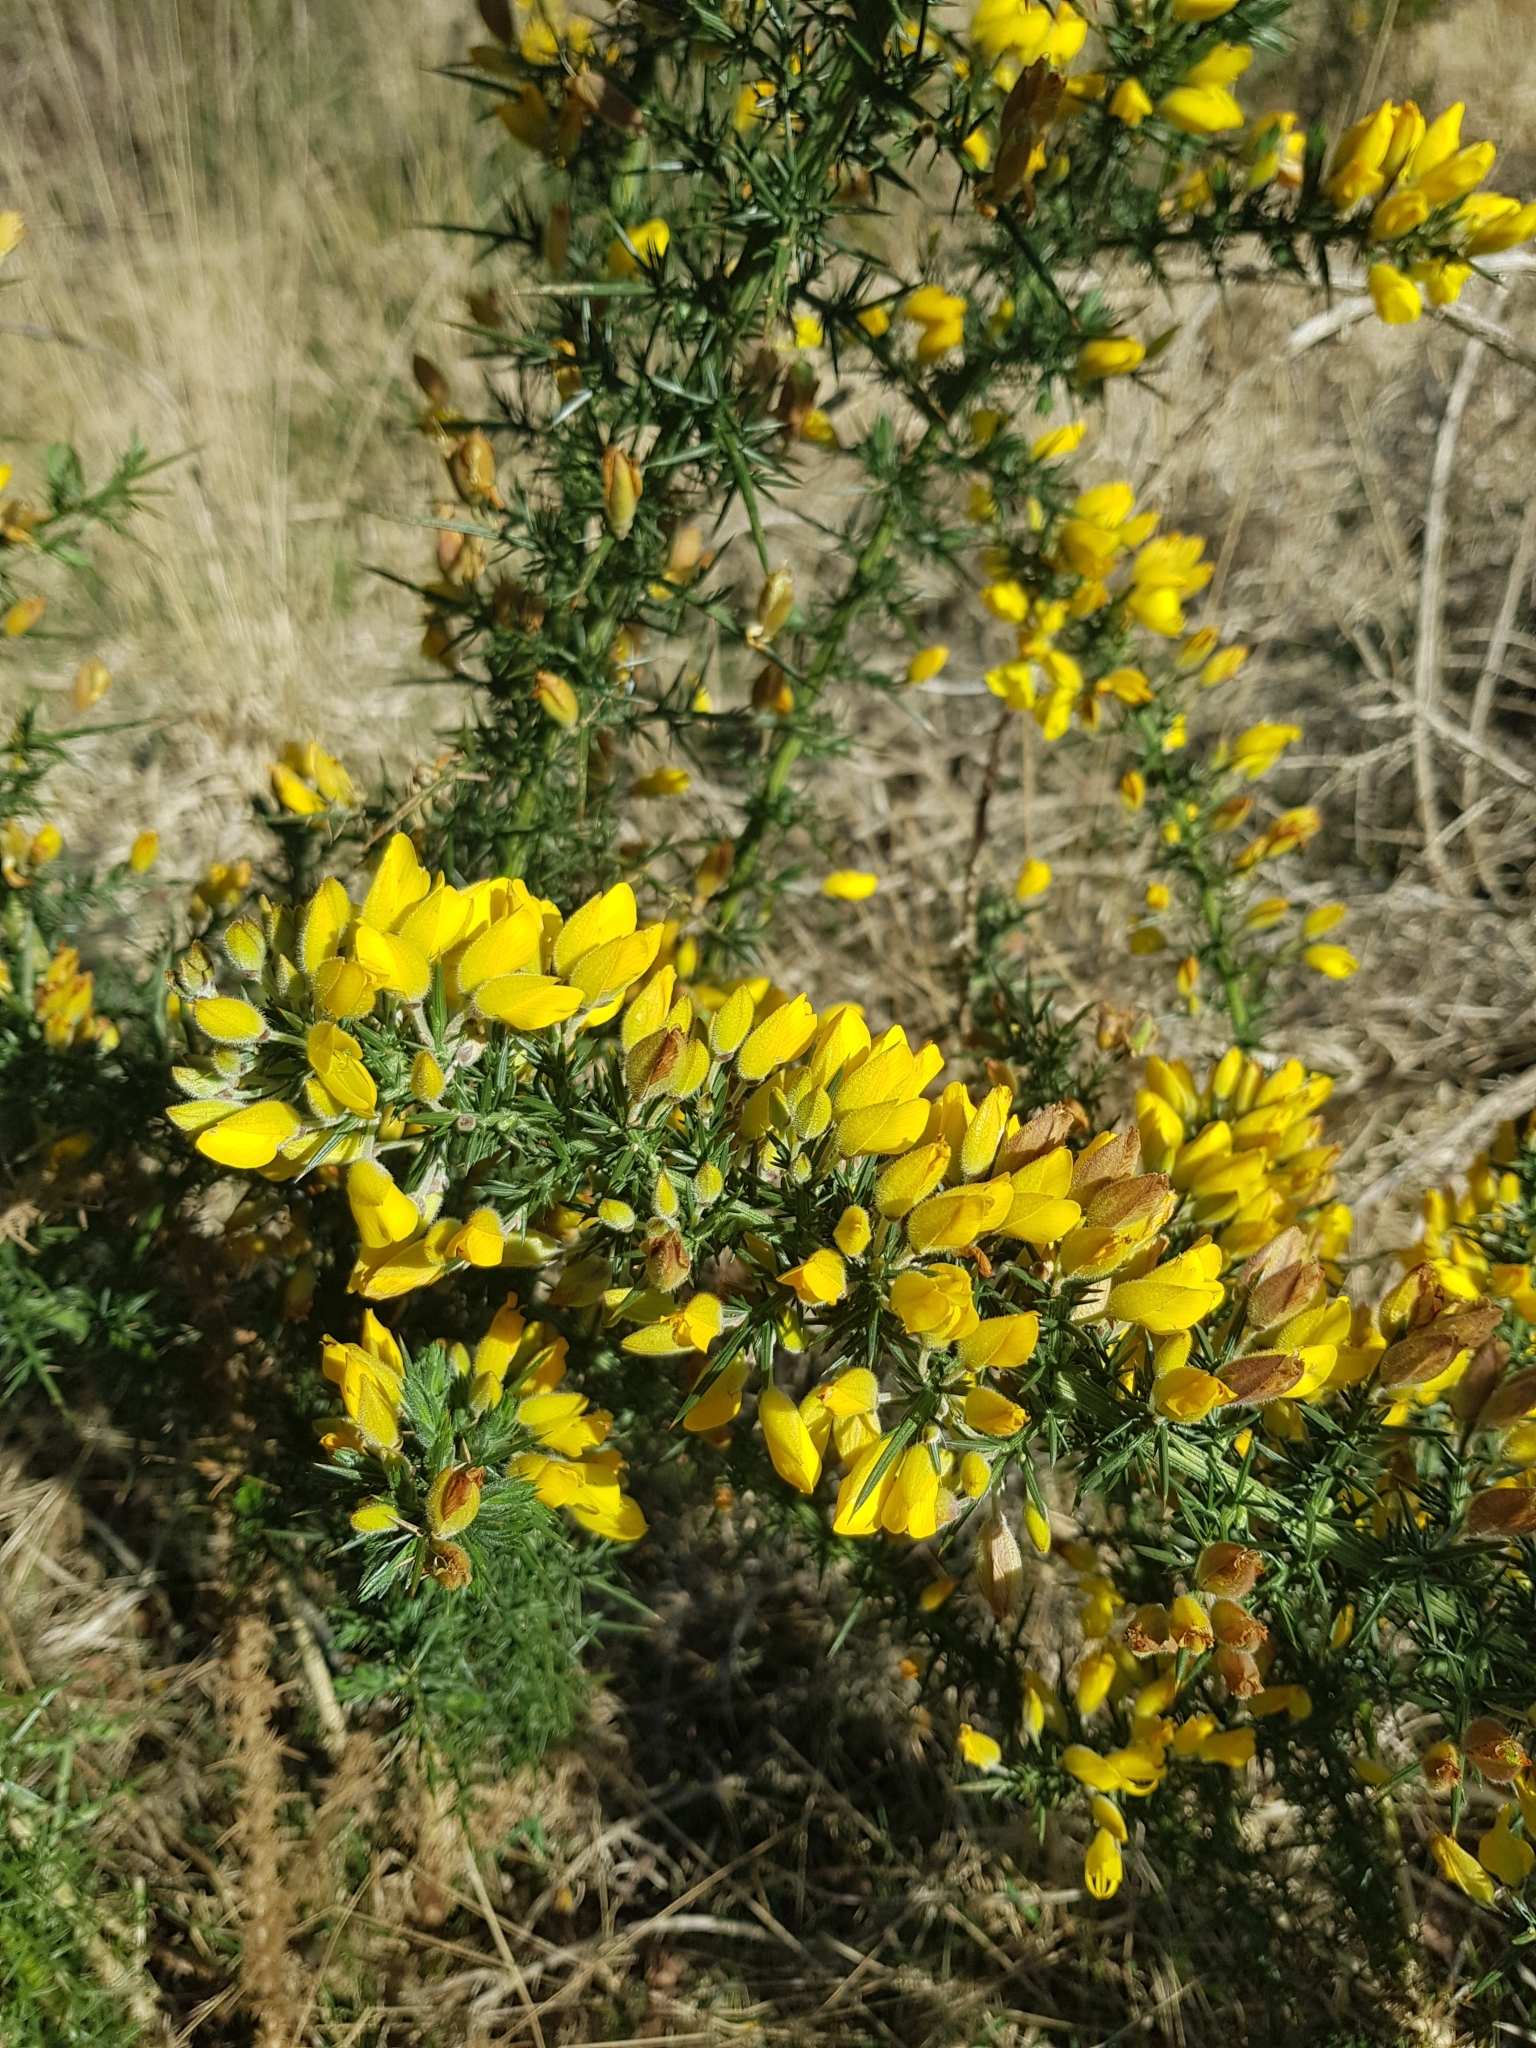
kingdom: Plantae
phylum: Tracheophyta
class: Magnoliopsida
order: Fabales
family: Fabaceae
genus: Ulex
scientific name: Ulex europaeus
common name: Common gorse
